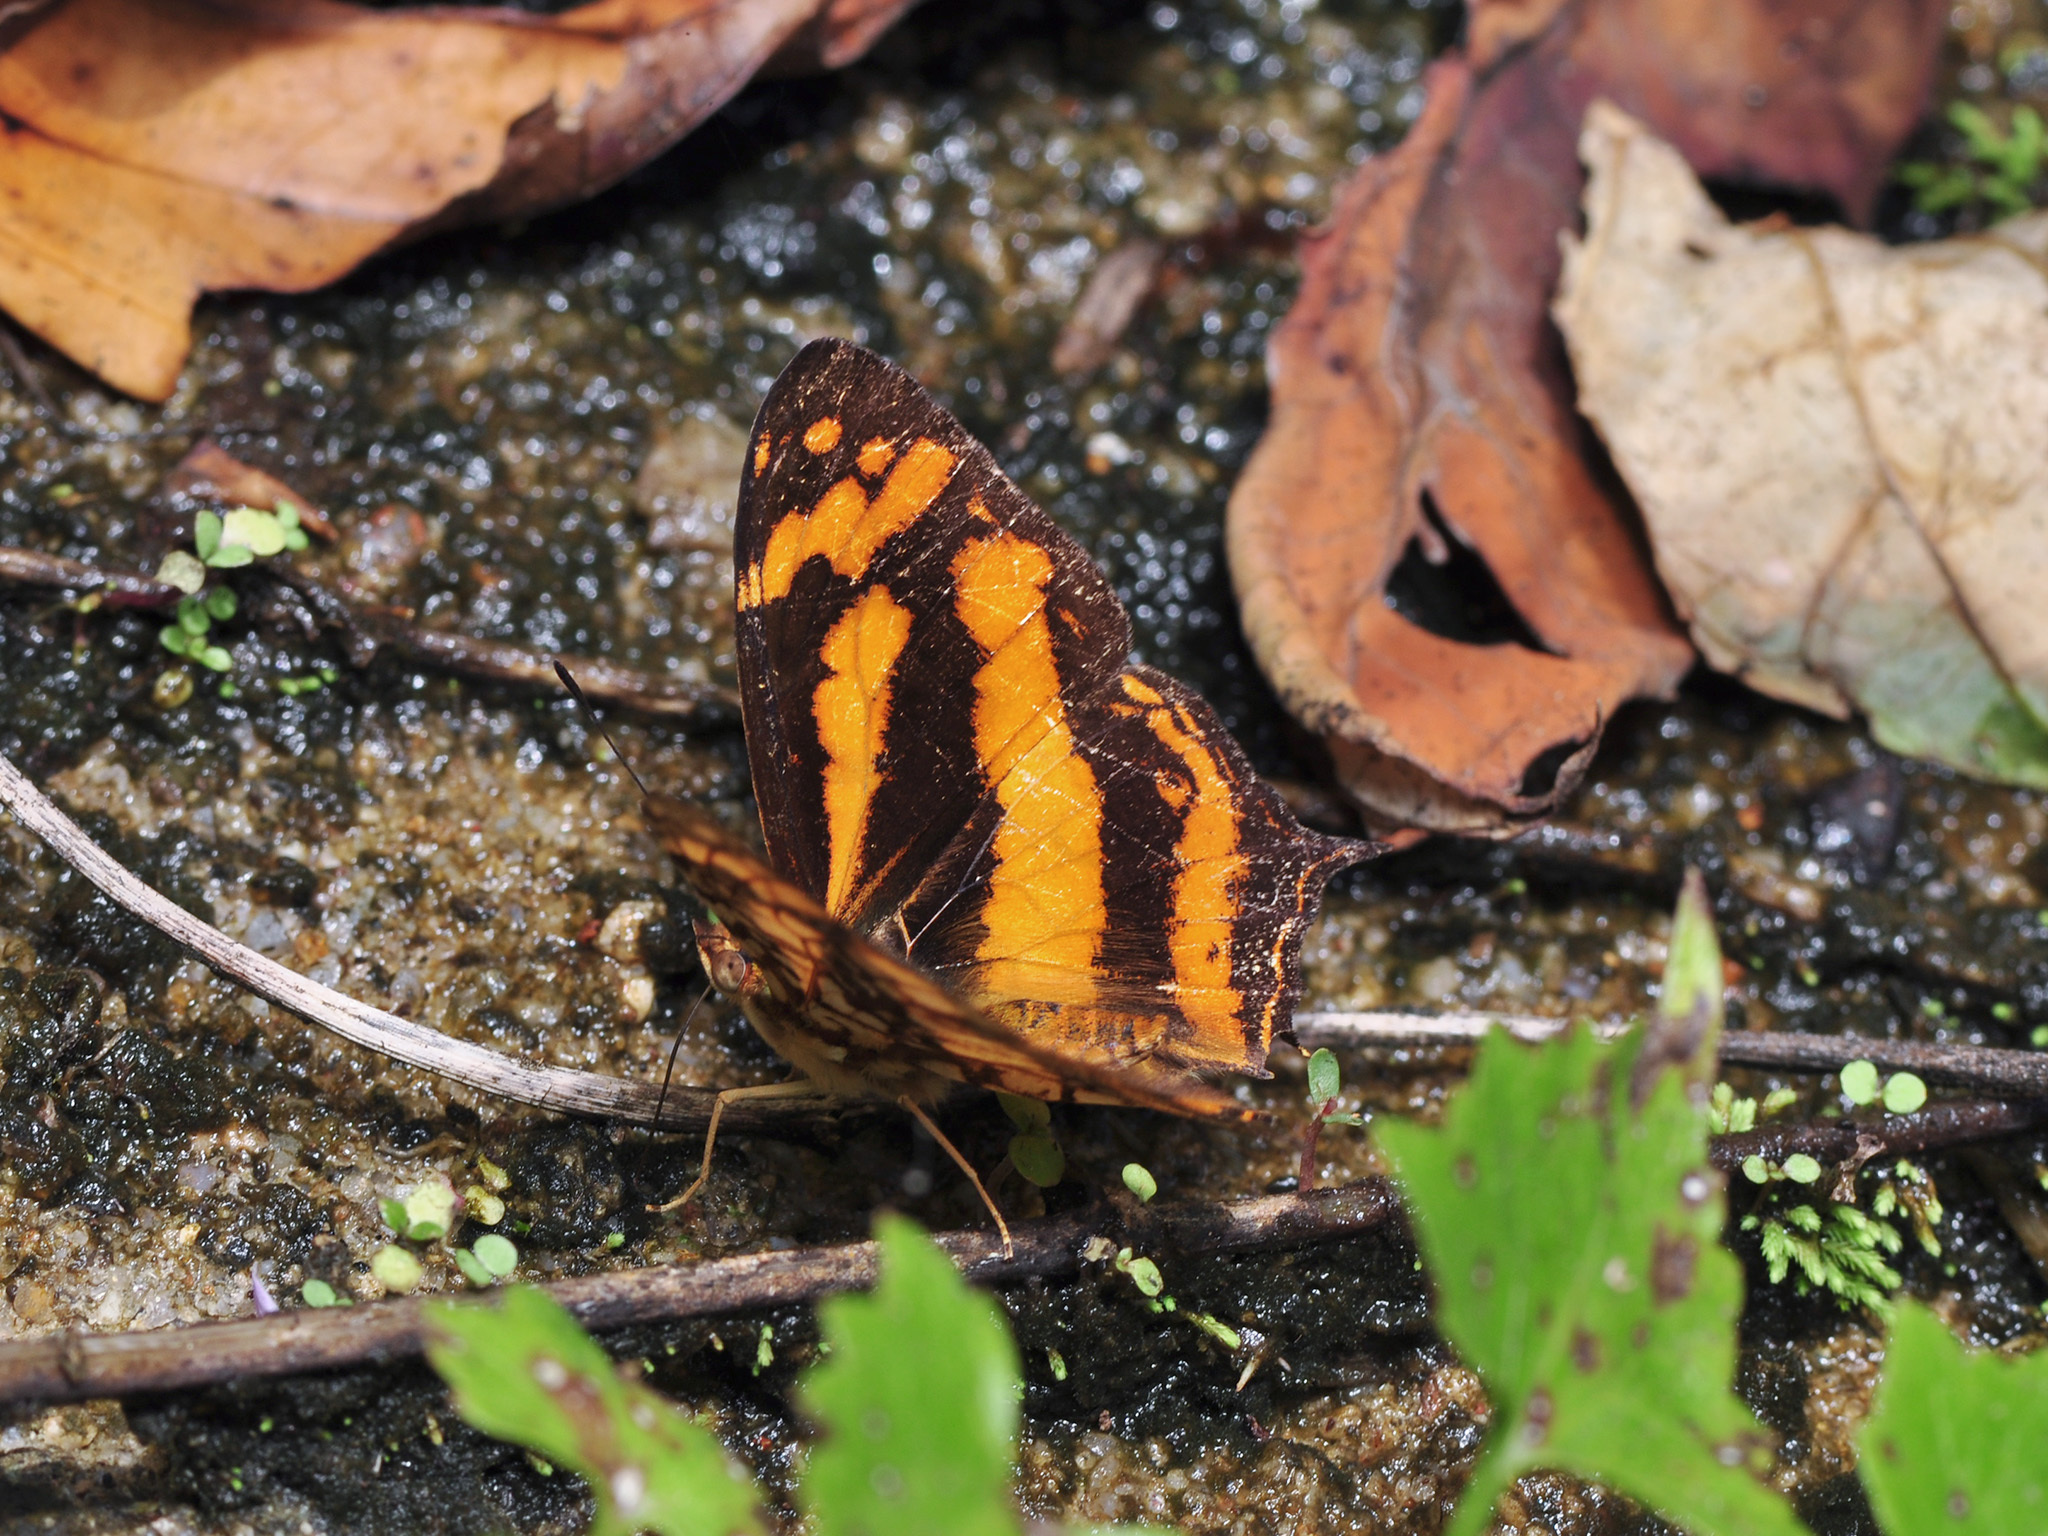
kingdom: Animalia
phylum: Arthropoda
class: Insecta
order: Lepidoptera
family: Nymphalidae
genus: Symbrenthia
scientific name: Symbrenthia hypatia
